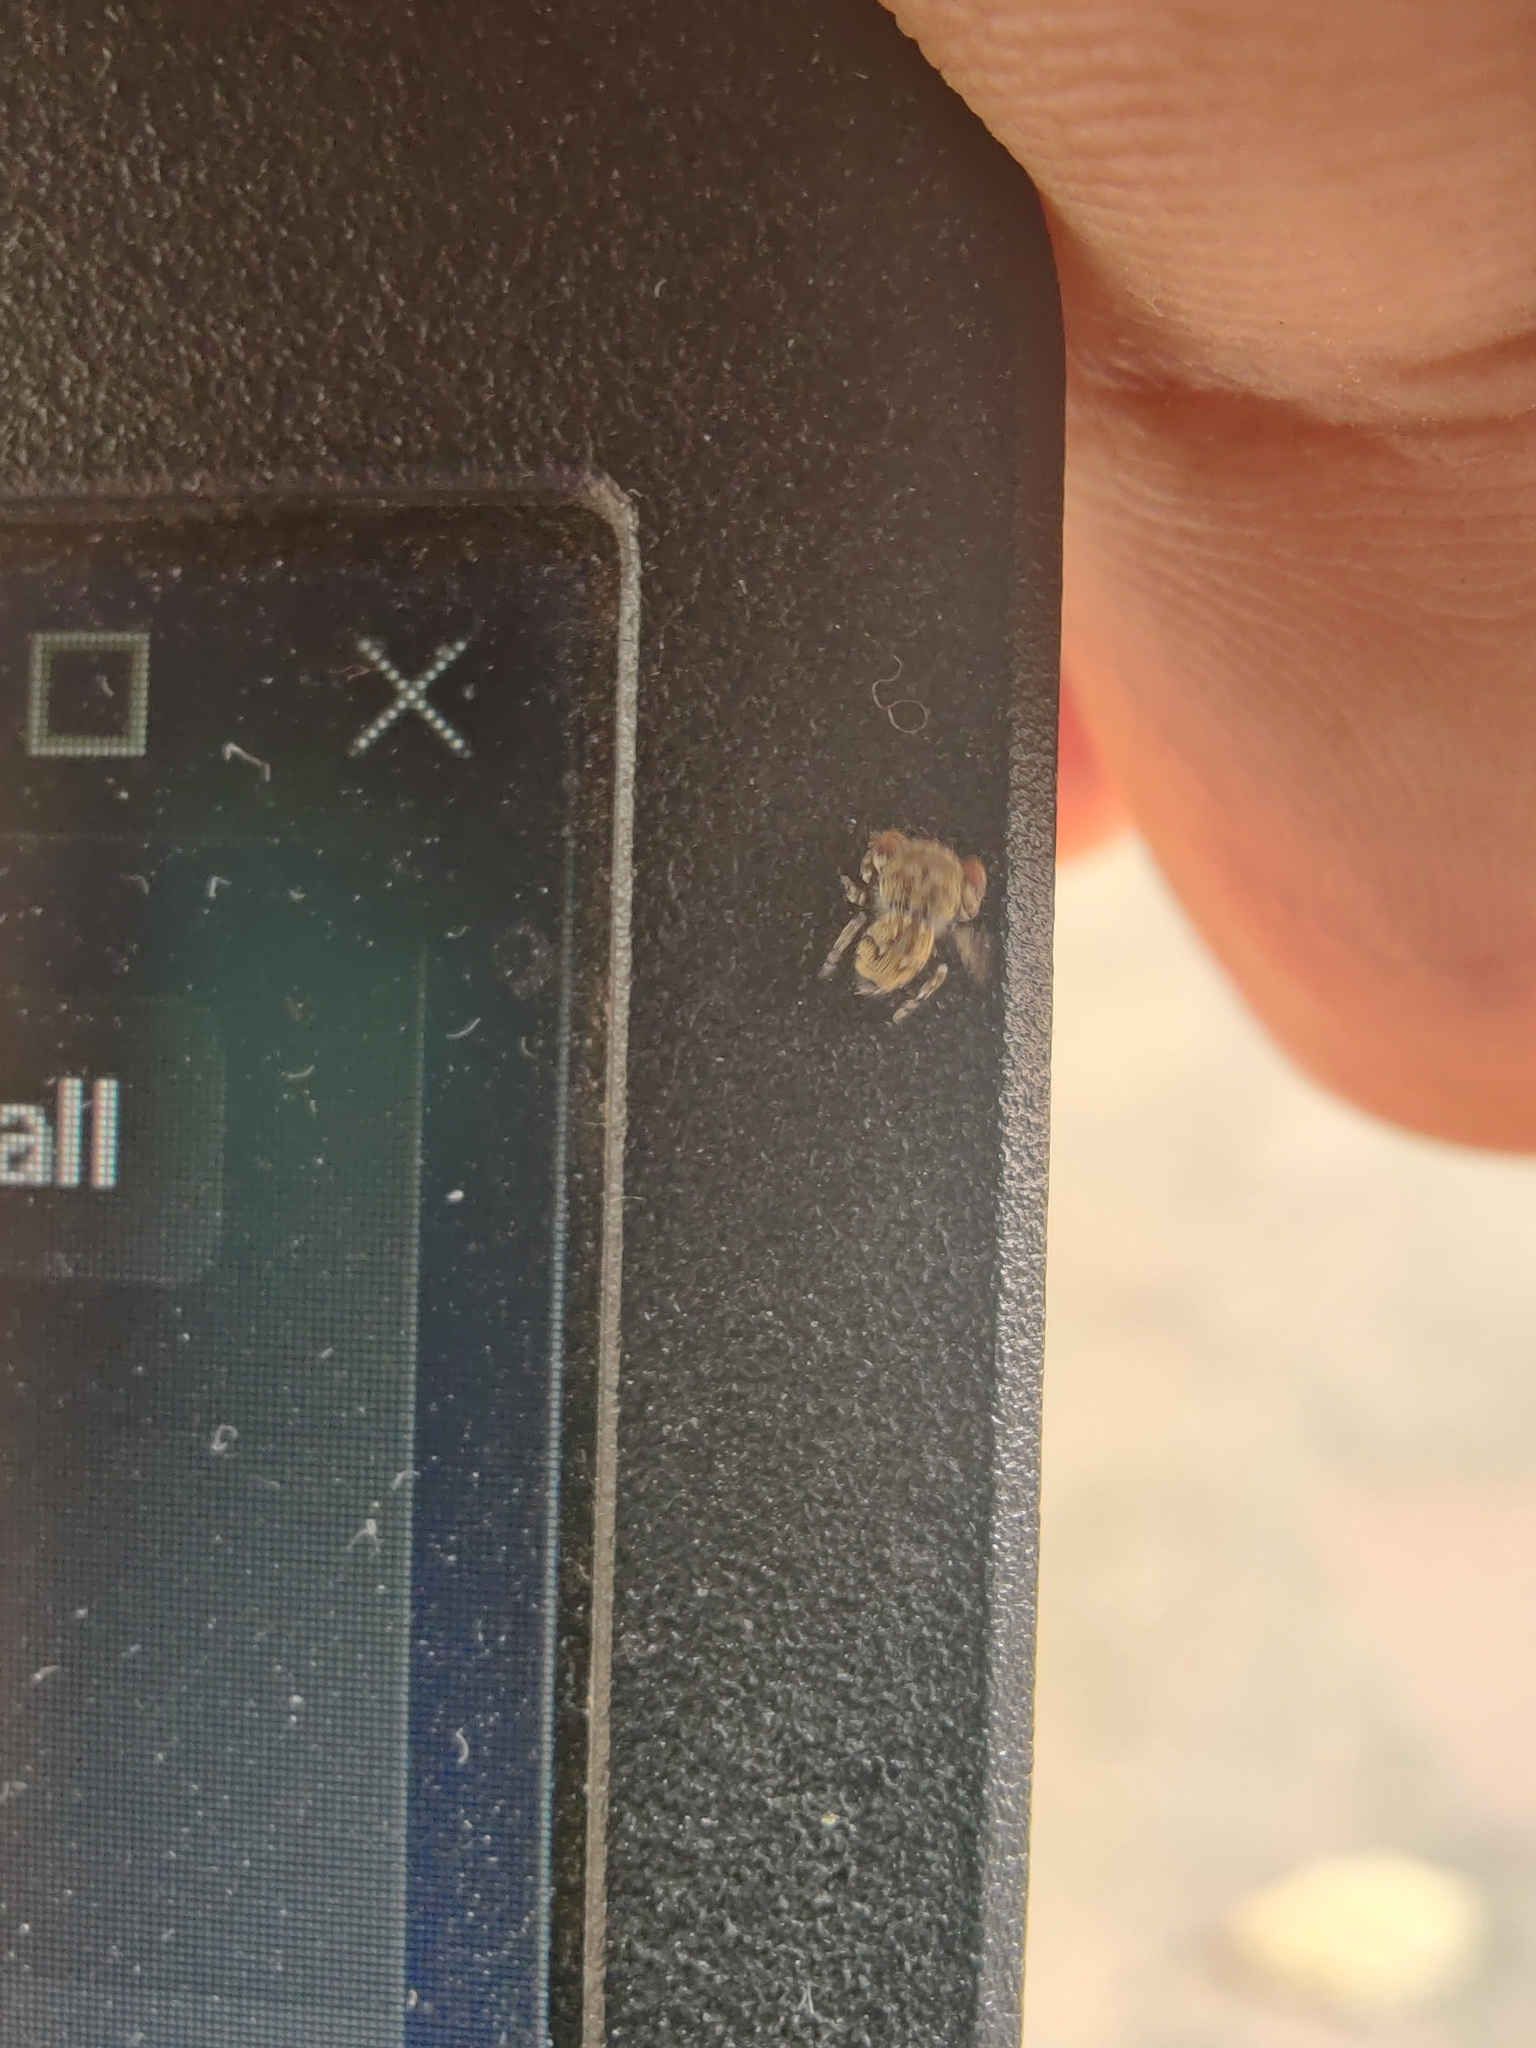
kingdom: Animalia
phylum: Arthropoda
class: Arachnida
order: Araneae
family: Salticidae
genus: Rhene
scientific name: Rhene flavigera
